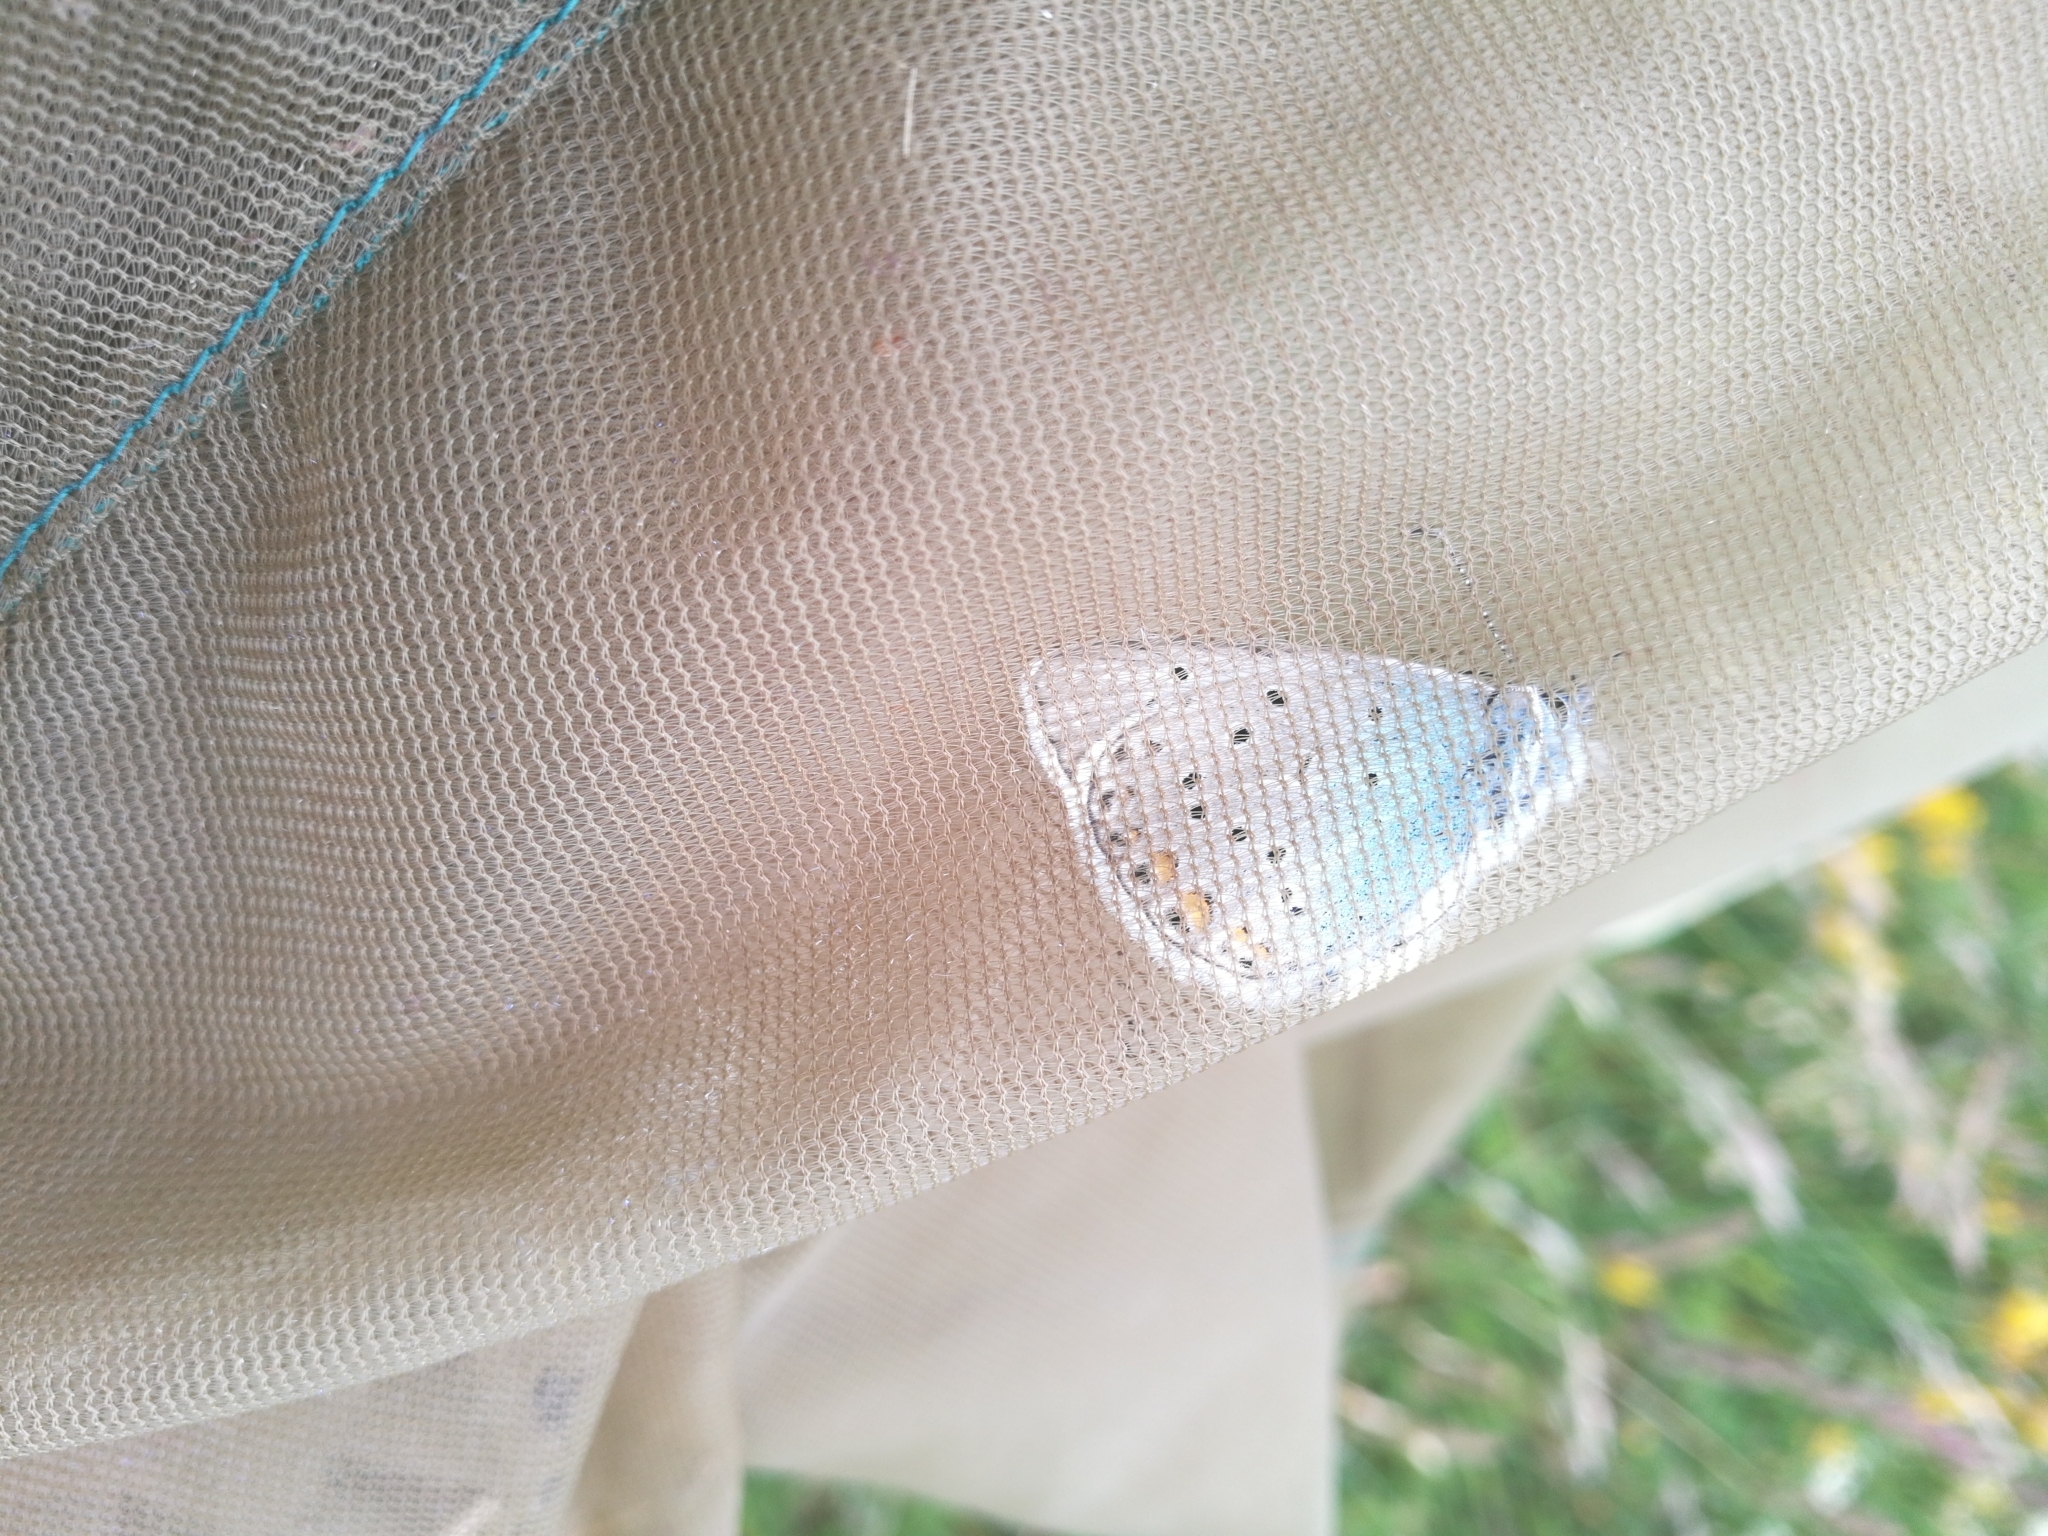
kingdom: Animalia
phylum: Arthropoda
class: Insecta
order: Lepidoptera
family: Lycaenidae
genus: Plebejus
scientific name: Plebejus amanda
